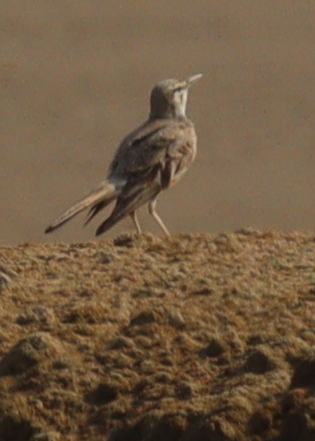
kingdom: Animalia
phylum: Chordata
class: Aves
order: Passeriformes
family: Alaudidae
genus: Alaemon
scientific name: Alaemon alaudipes
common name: Greater hoopoe-lark
